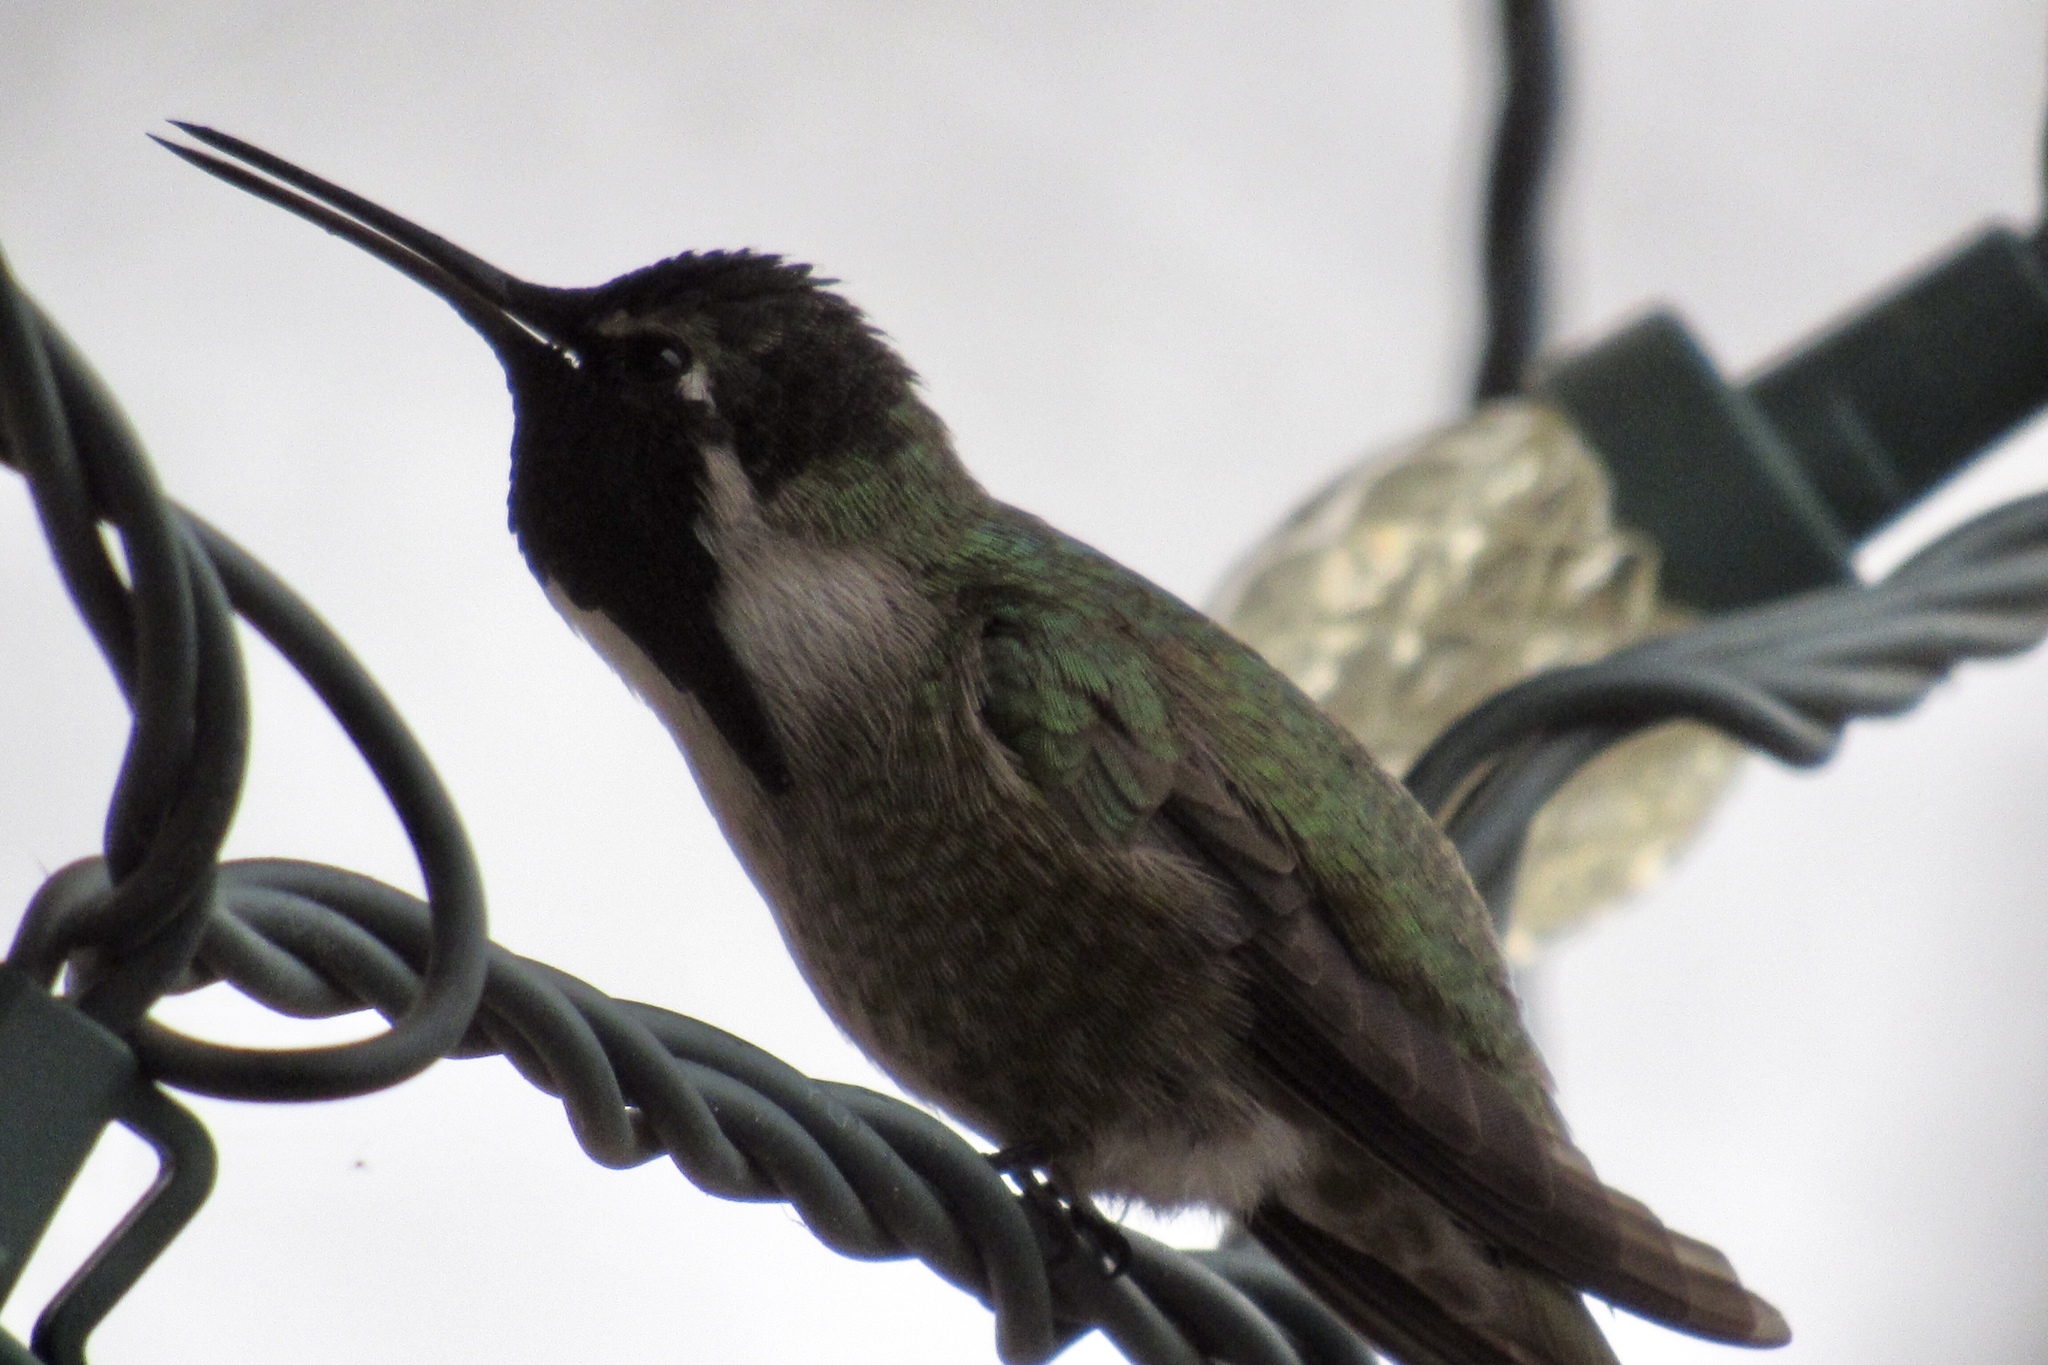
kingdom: Animalia
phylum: Chordata
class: Aves
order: Apodiformes
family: Trochilidae
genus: Calypte
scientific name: Calypte costae
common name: Costa's hummingbird
